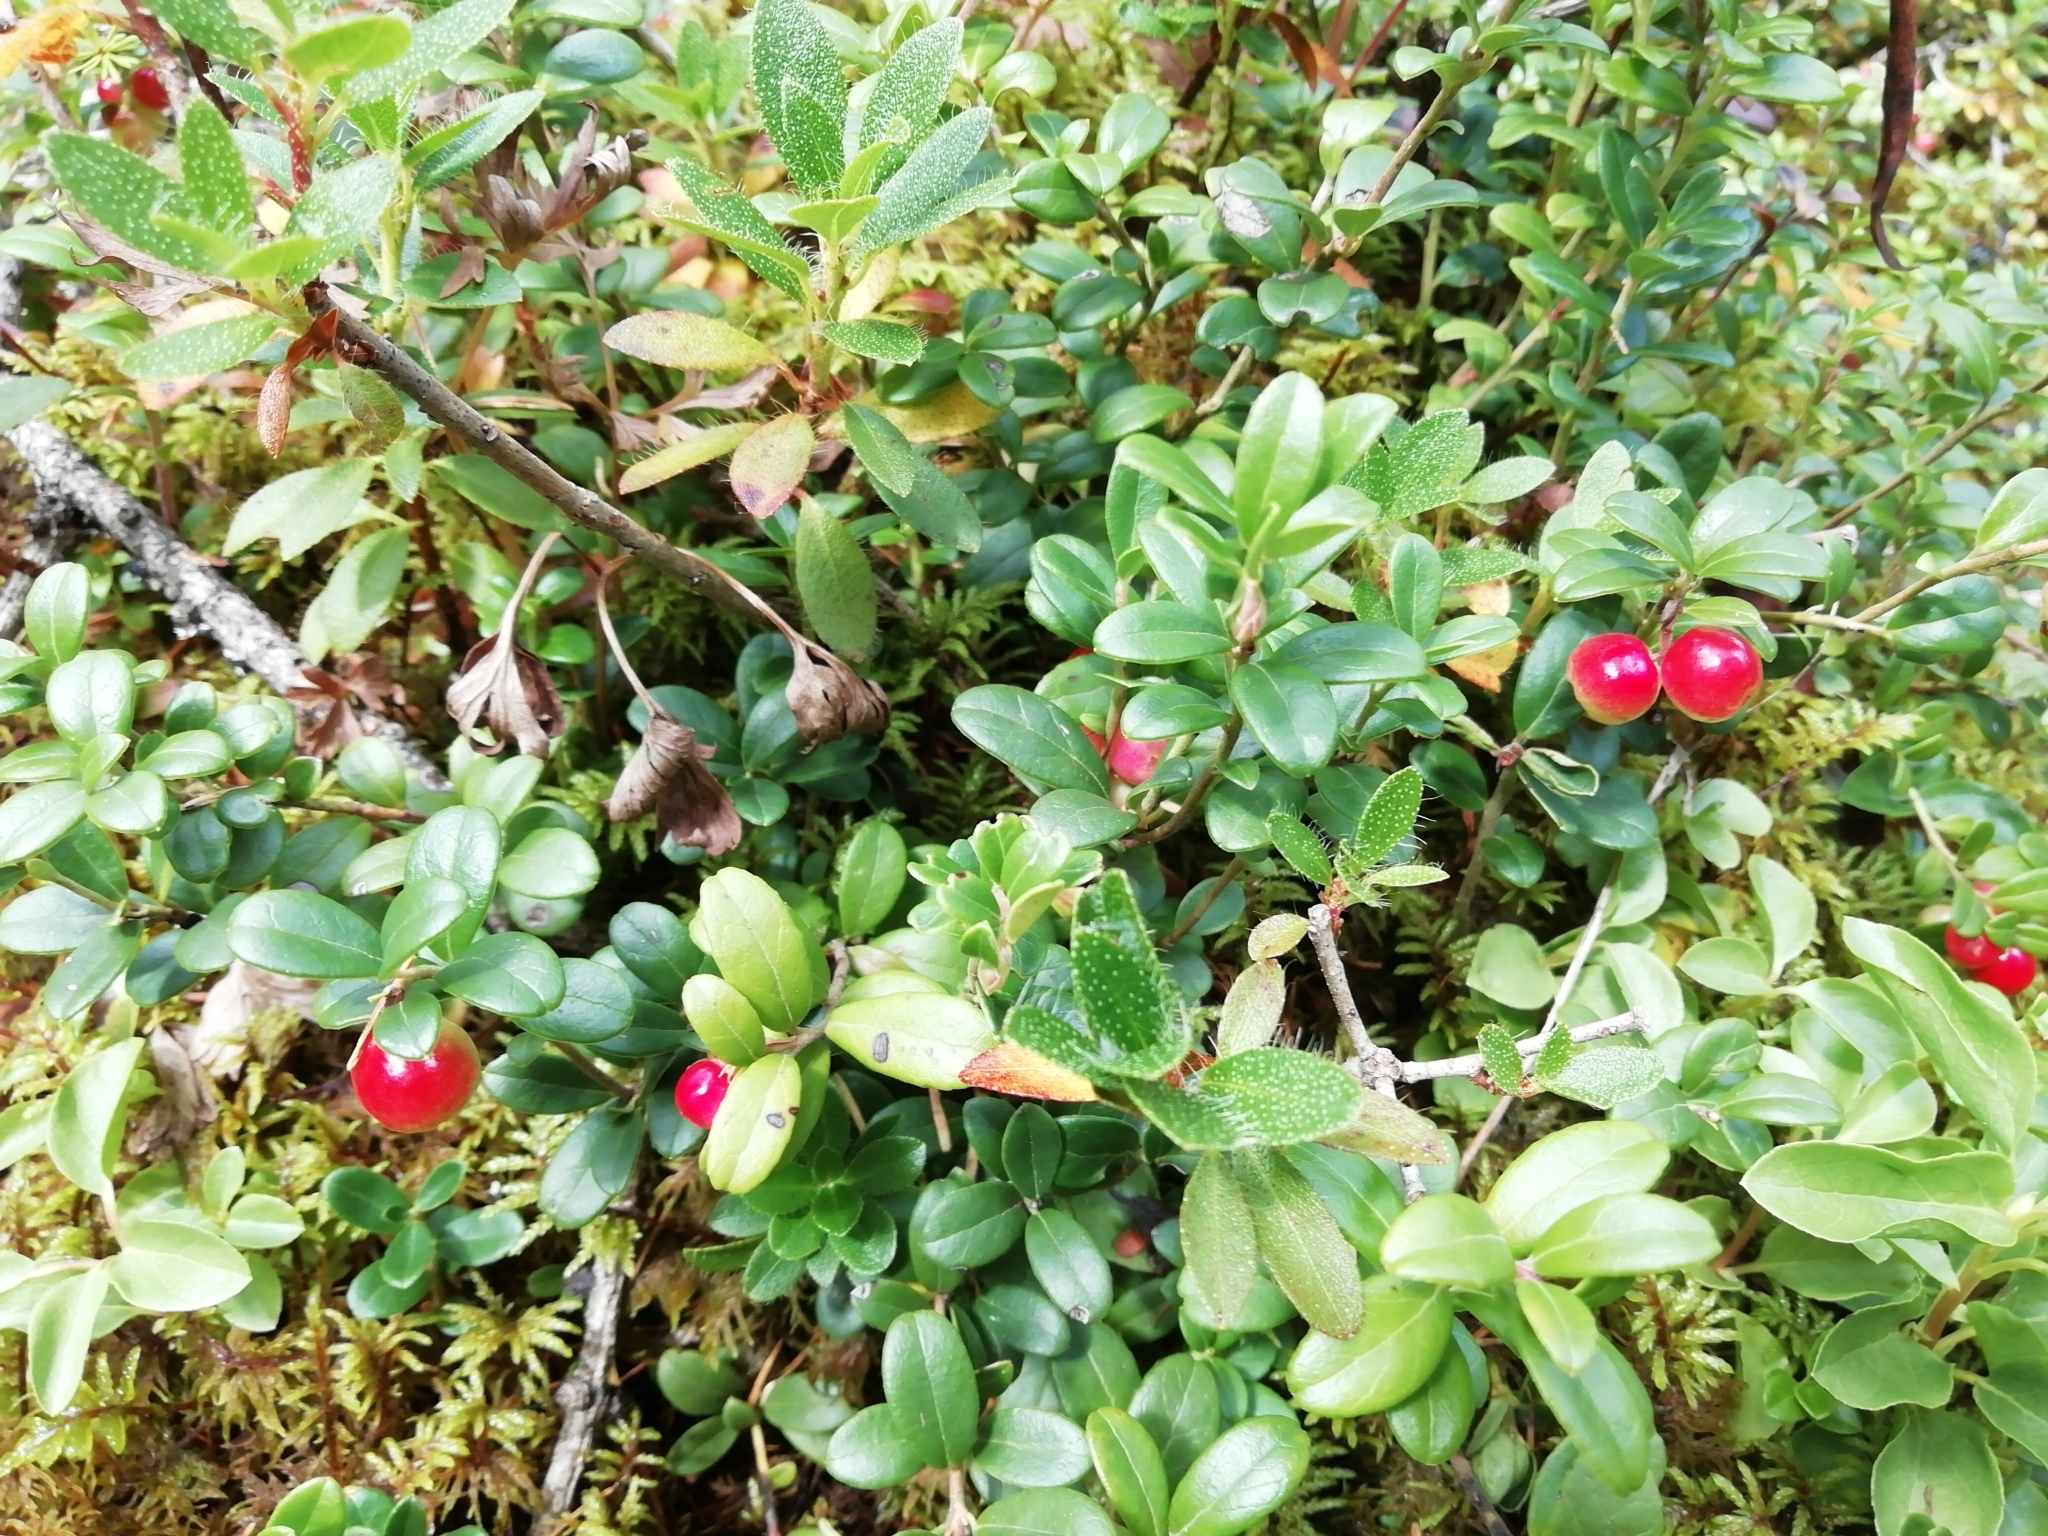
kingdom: Plantae
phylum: Tracheophyta
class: Magnoliopsida
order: Ericales
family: Ericaceae
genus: Vaccinium
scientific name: Vaccinium vitis-idaea
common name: Cowberry
